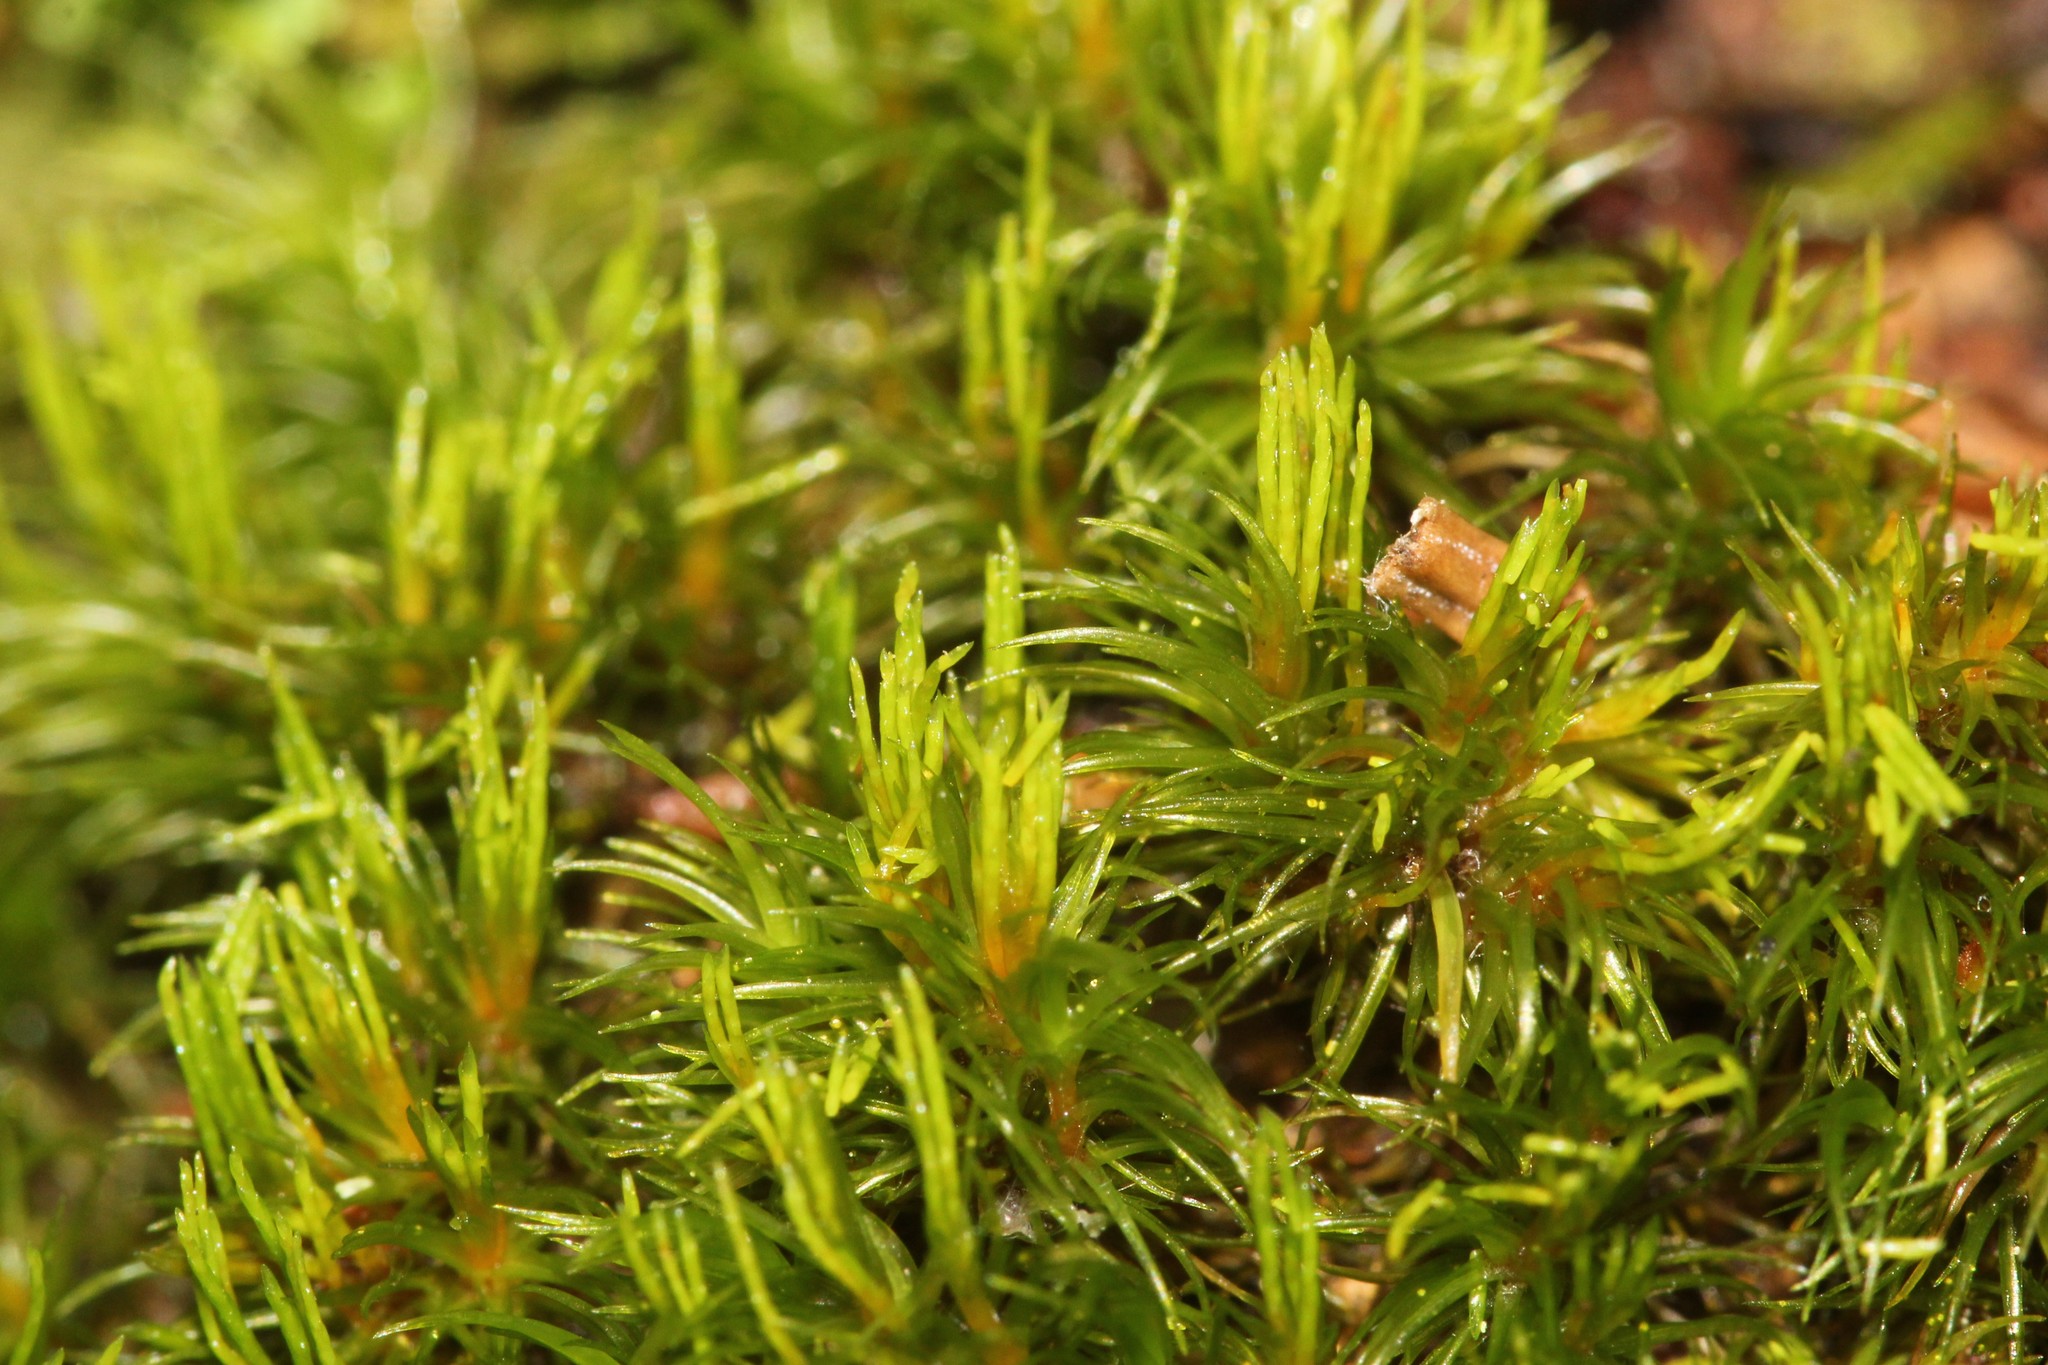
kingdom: Plantae
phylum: Bryophyta
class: Bryopsida
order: Dicranales
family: Dicranaceae
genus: Orthodicranum
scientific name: Orthodicranum flagellare
